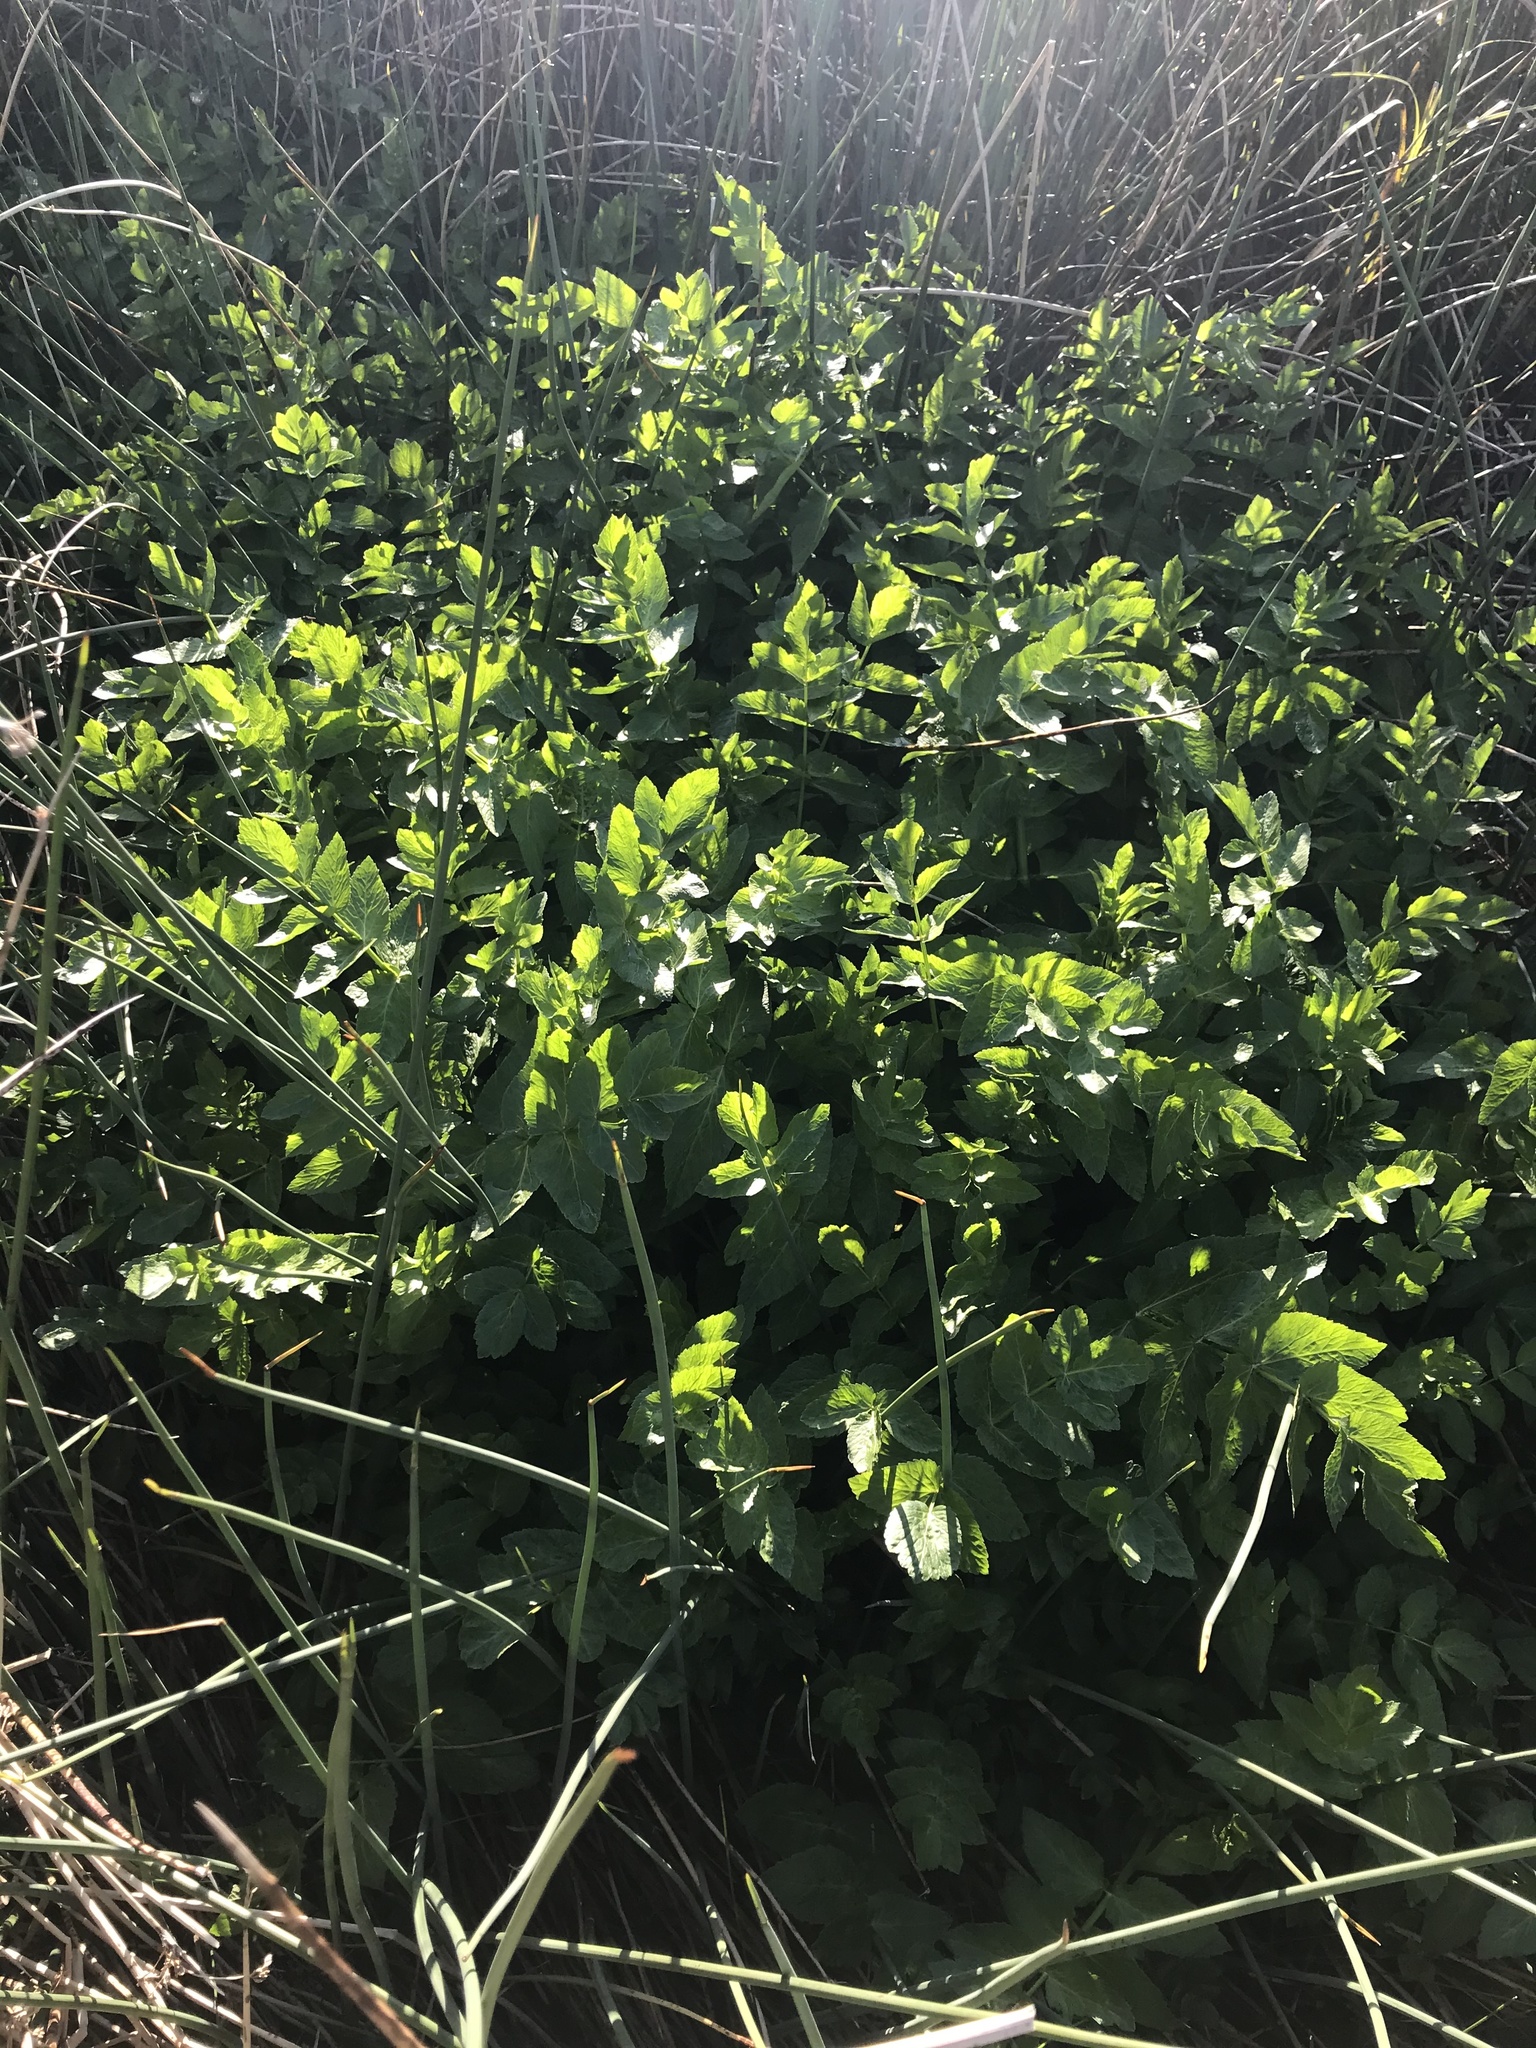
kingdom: Plantae
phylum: Tracheophyta
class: Magnoliopsida
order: Apiales
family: Apiaceae
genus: Helosciadium
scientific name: Helosciadium nodiflorum
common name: Fool's-watercress
